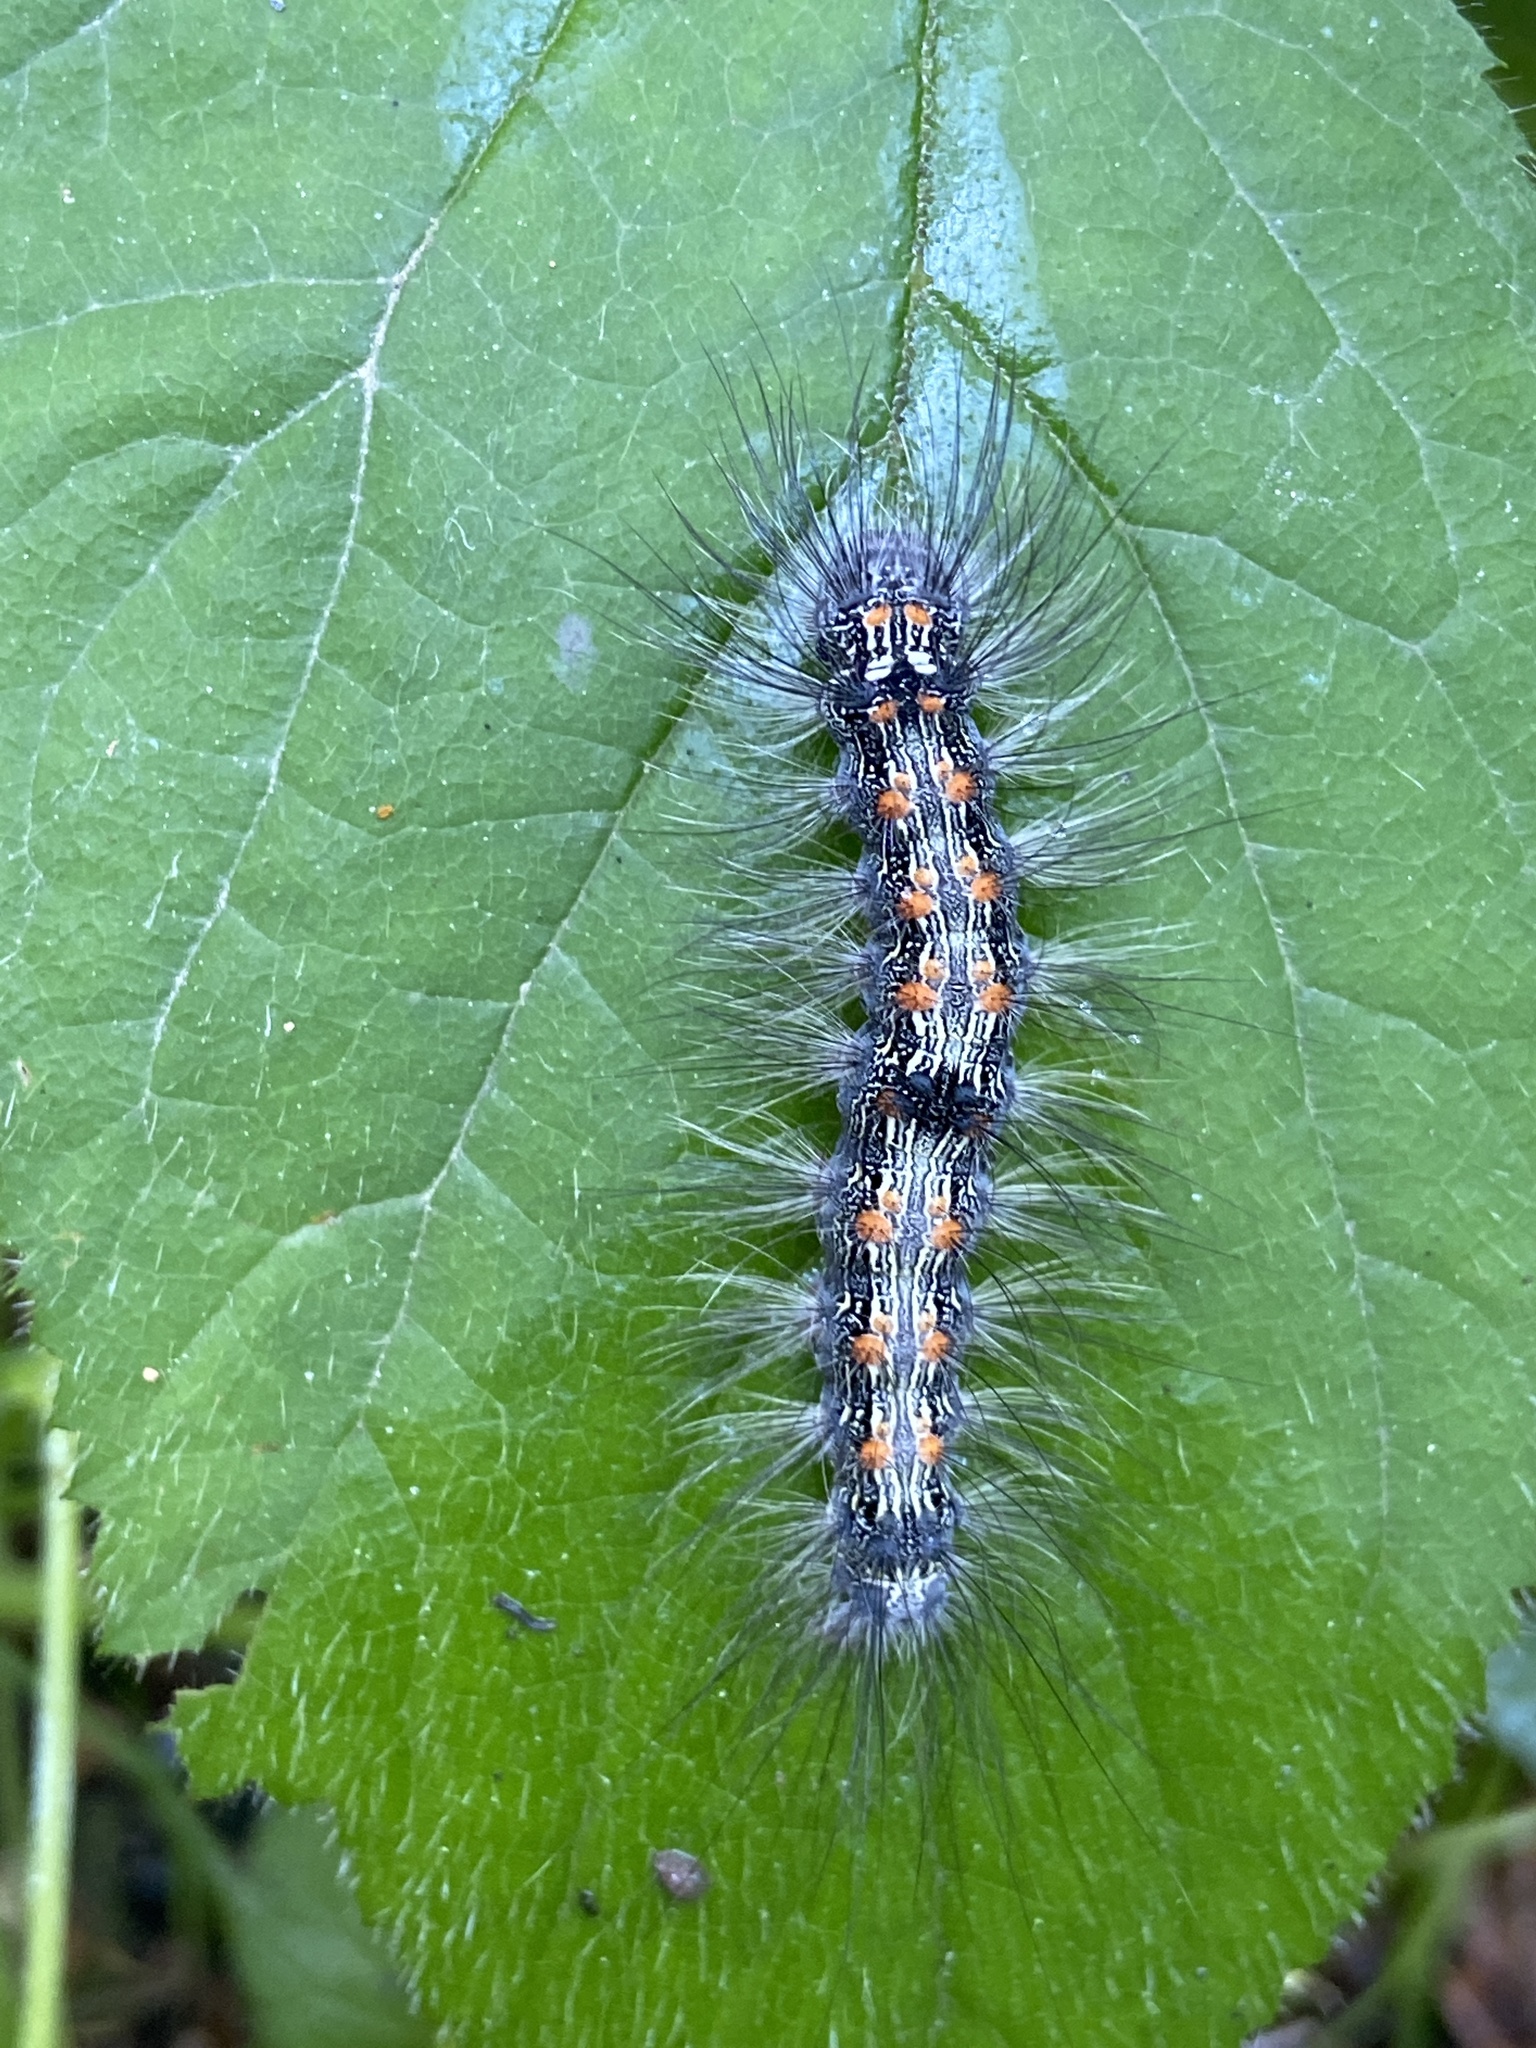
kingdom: Animalia
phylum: Arthropoda
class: Insecta
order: Lepidoptera
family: Erebidae
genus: Lithosia
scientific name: Lithosia quadra
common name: Four-spotted footman
